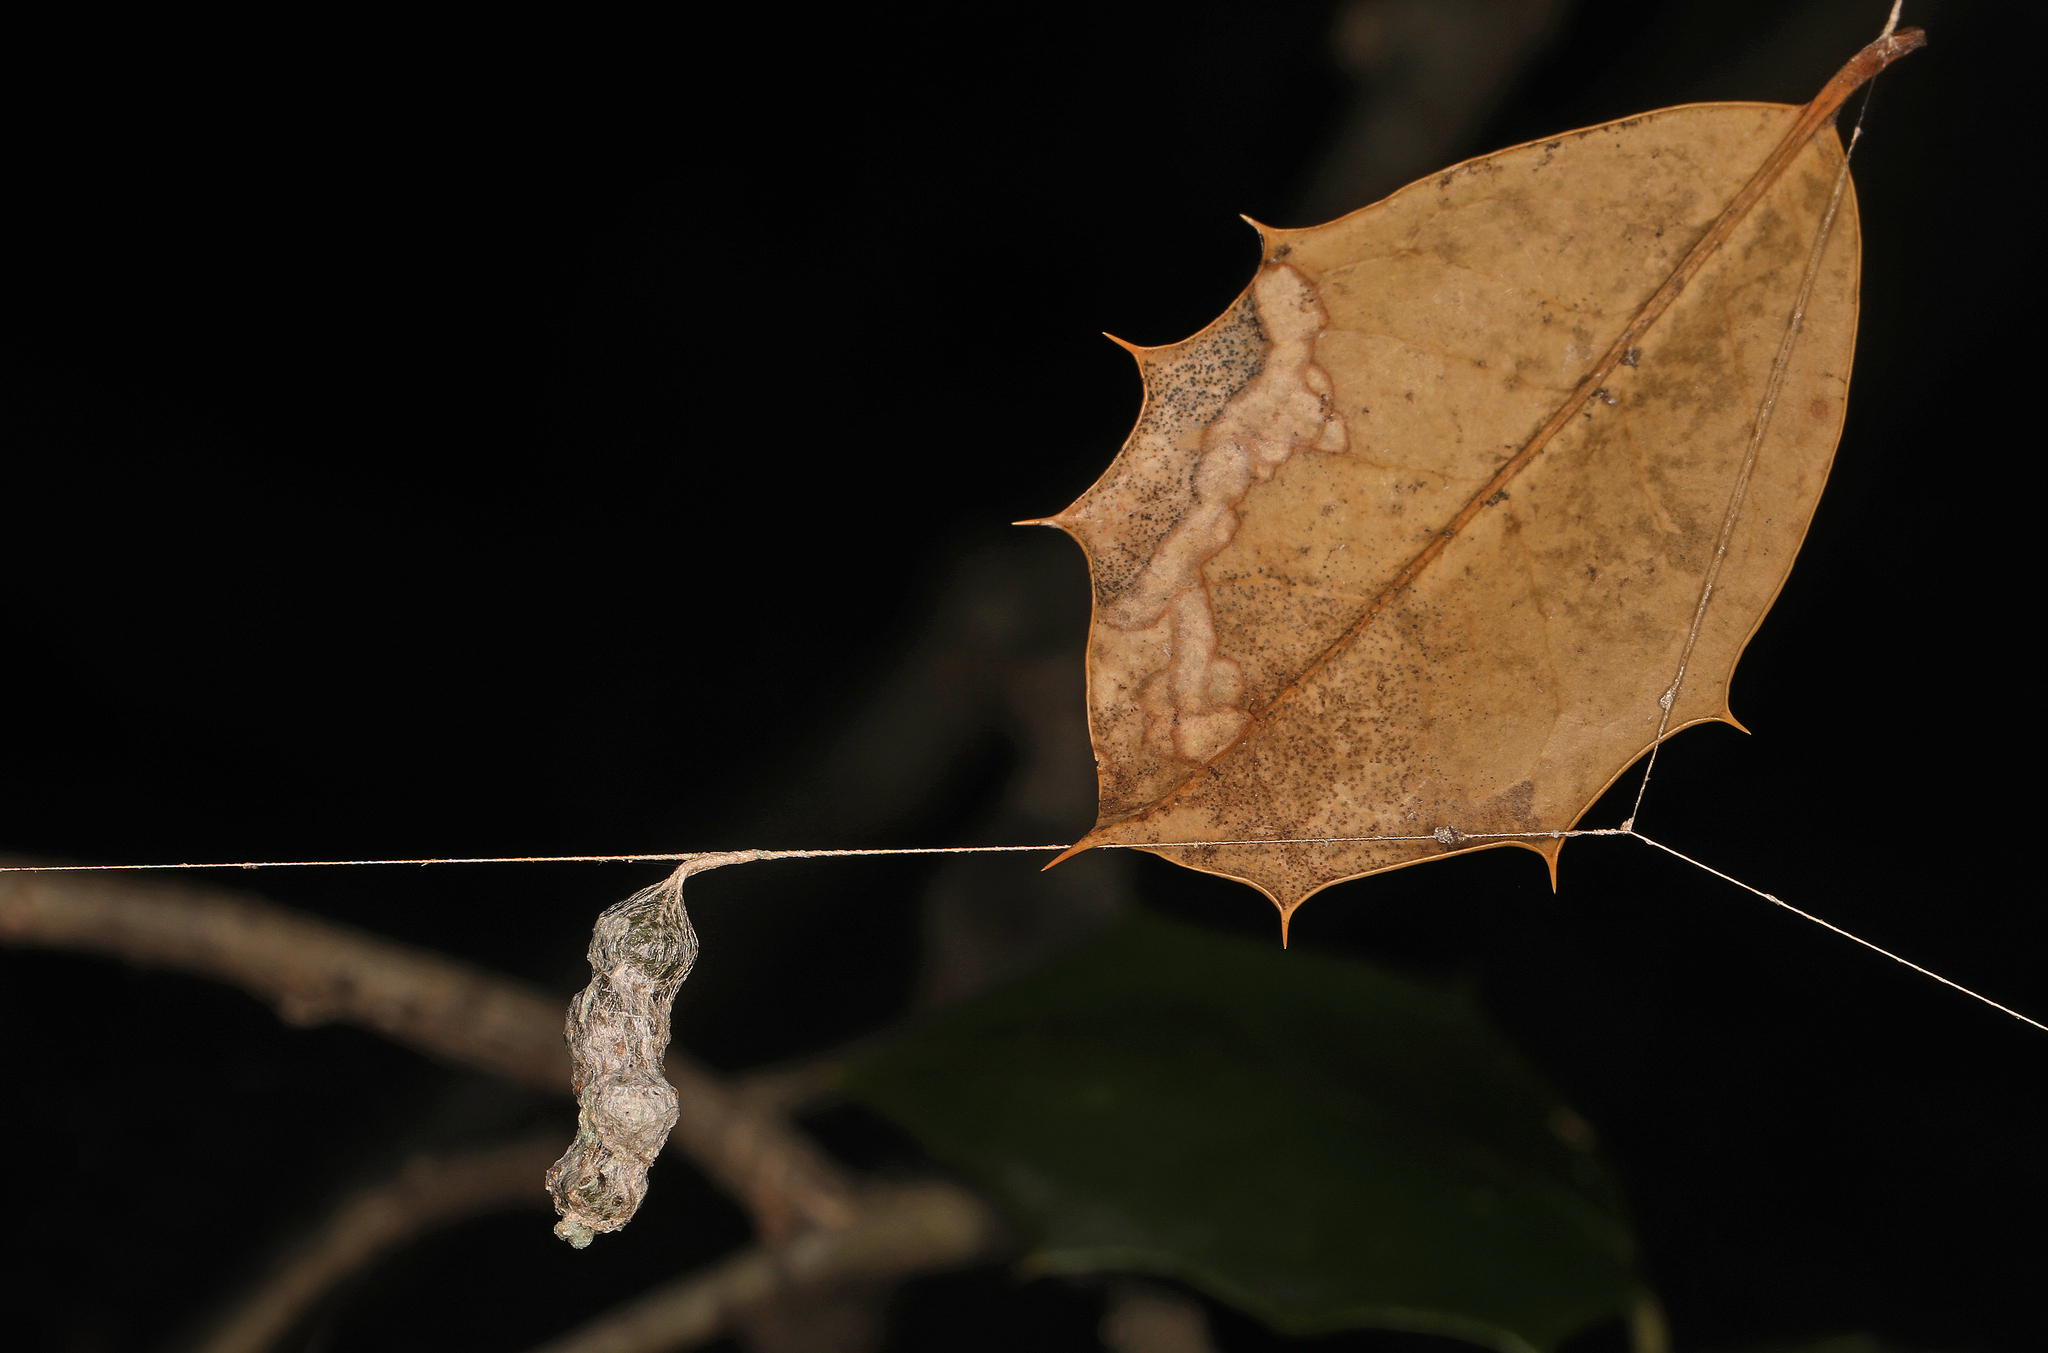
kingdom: Animalia
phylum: Arthropoda
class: Arachnida
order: Araneae
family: Araneidae
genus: Mecynogea
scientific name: Mecynogea lemniscata
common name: Orb weavers
